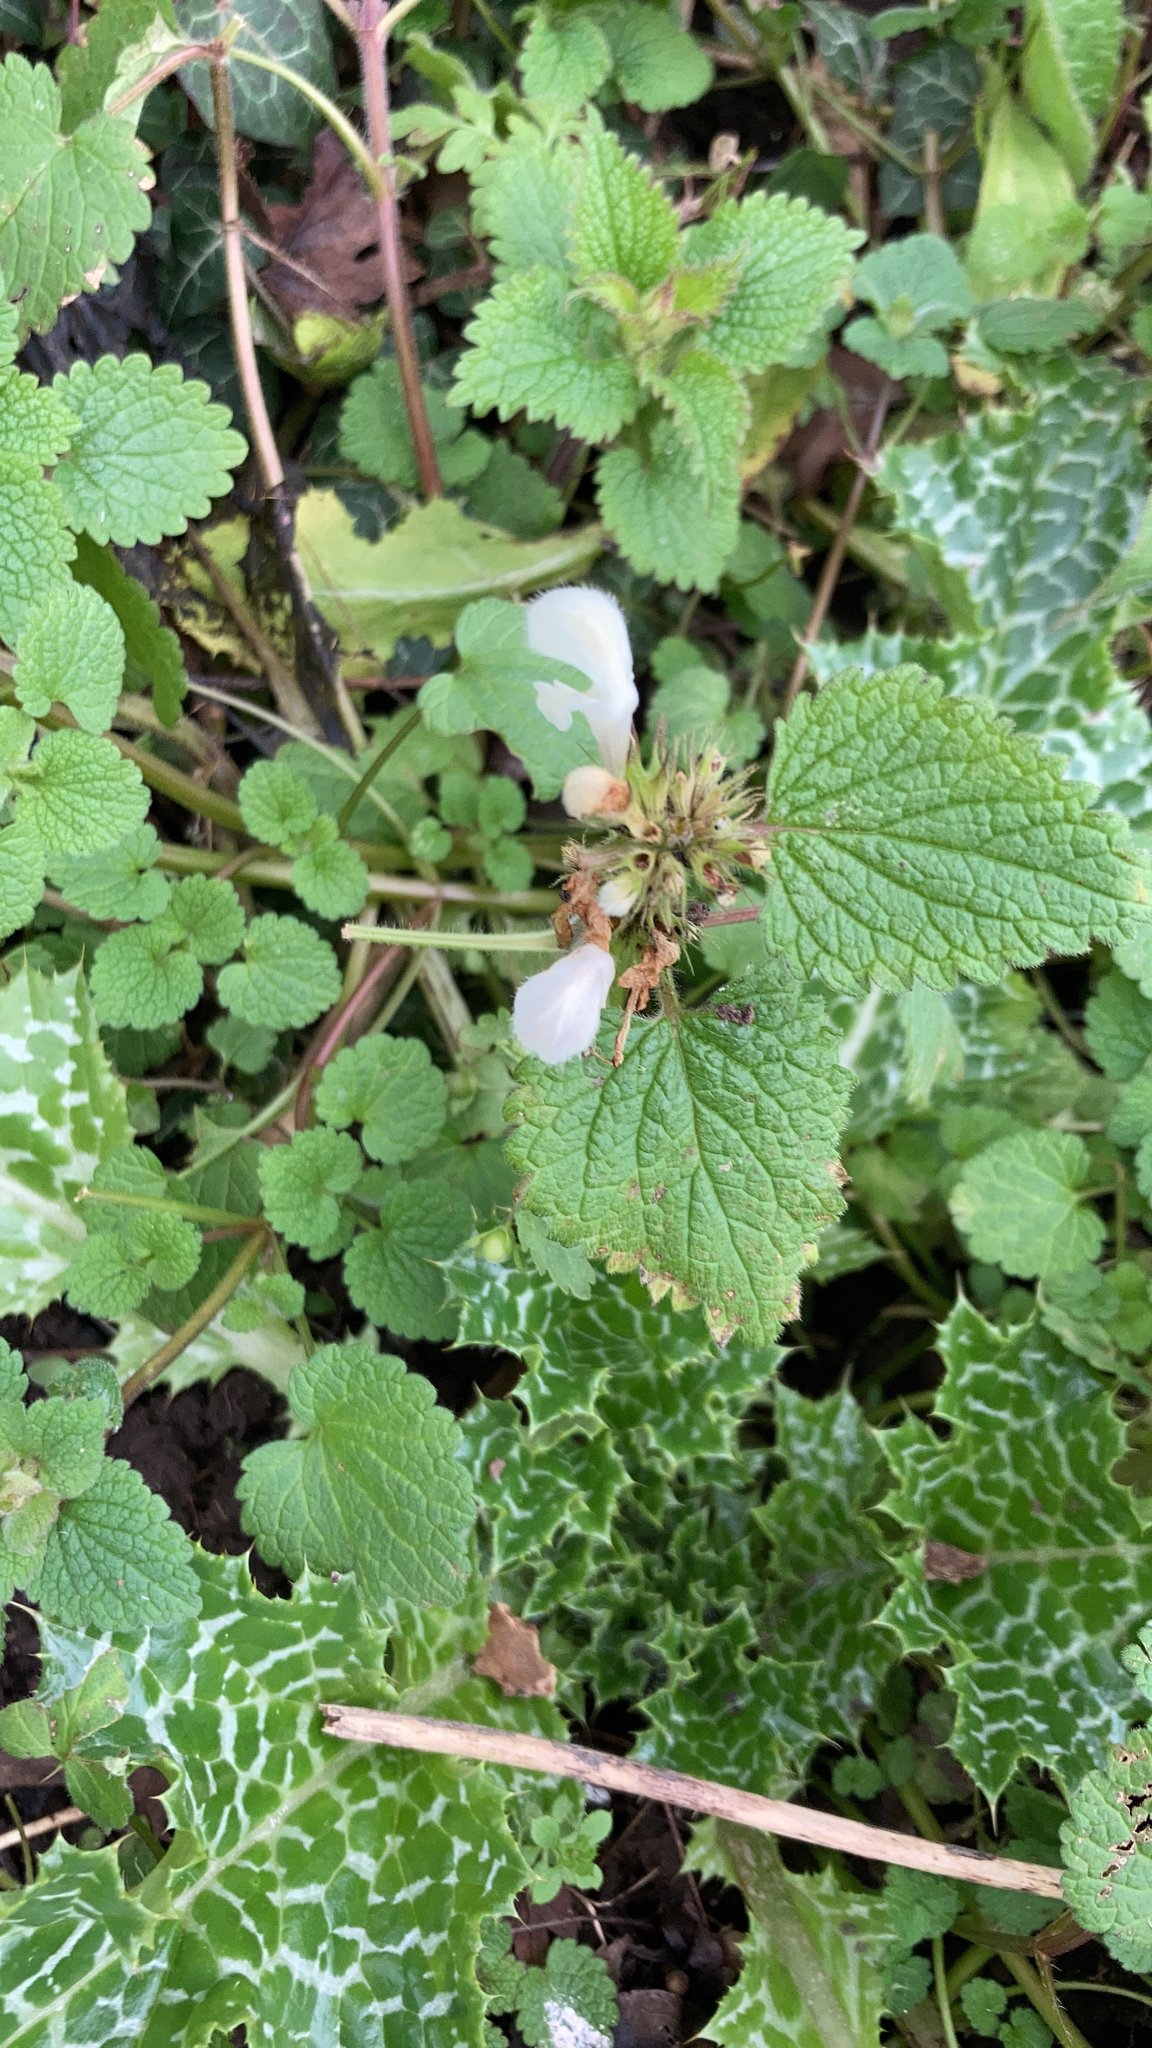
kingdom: Plantae
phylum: Tracheophyta
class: Magnoliopsida
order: Lamiales
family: Lamiaceae
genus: Lamium
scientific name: Lamium album
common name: White dead-nettle
